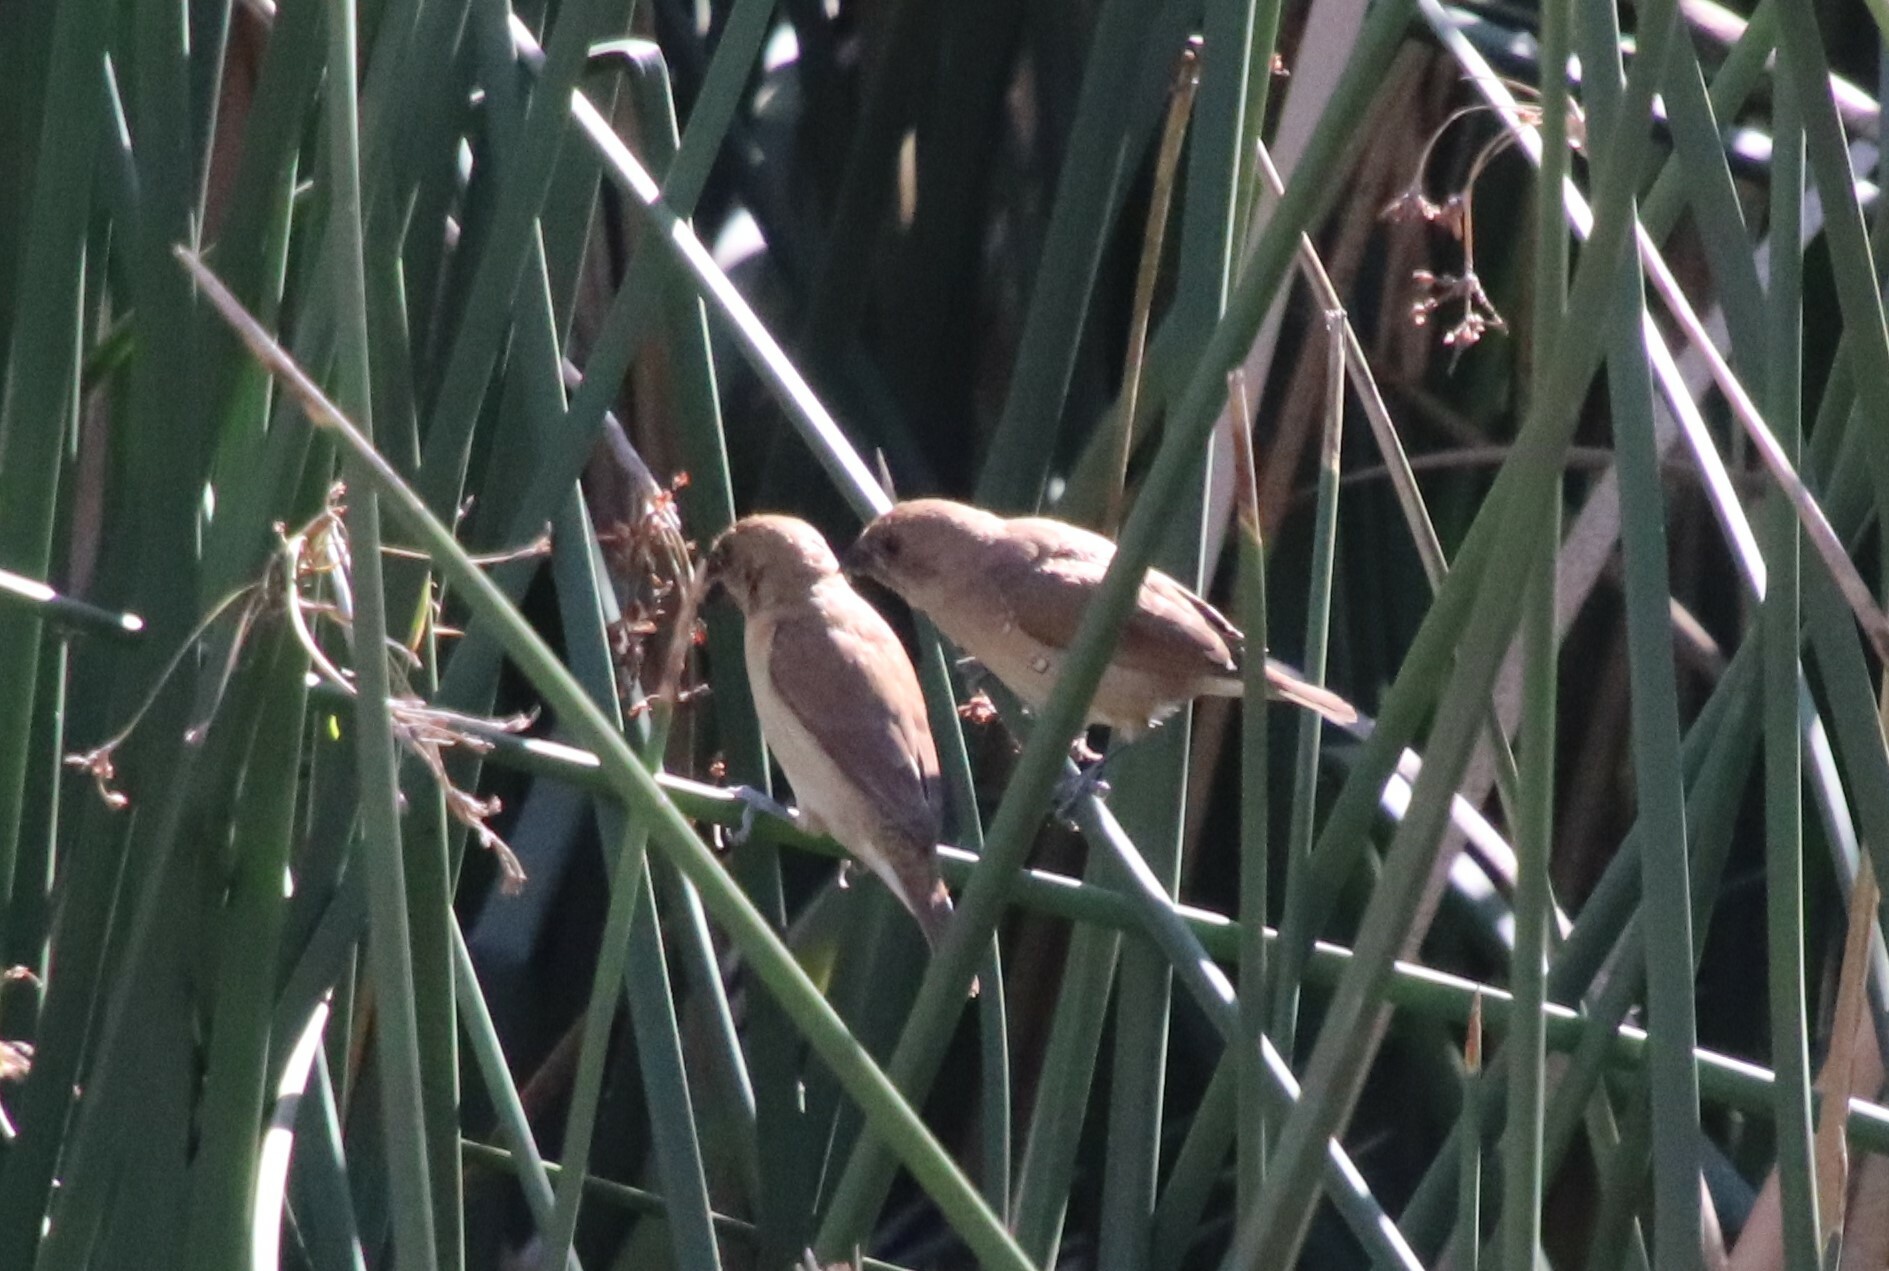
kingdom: Animalia
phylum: Chordata
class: Aves
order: Passeriformes
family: Estrildidae
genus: Lonchura
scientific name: Lonchura punctulata
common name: Scaly-breasted munia
